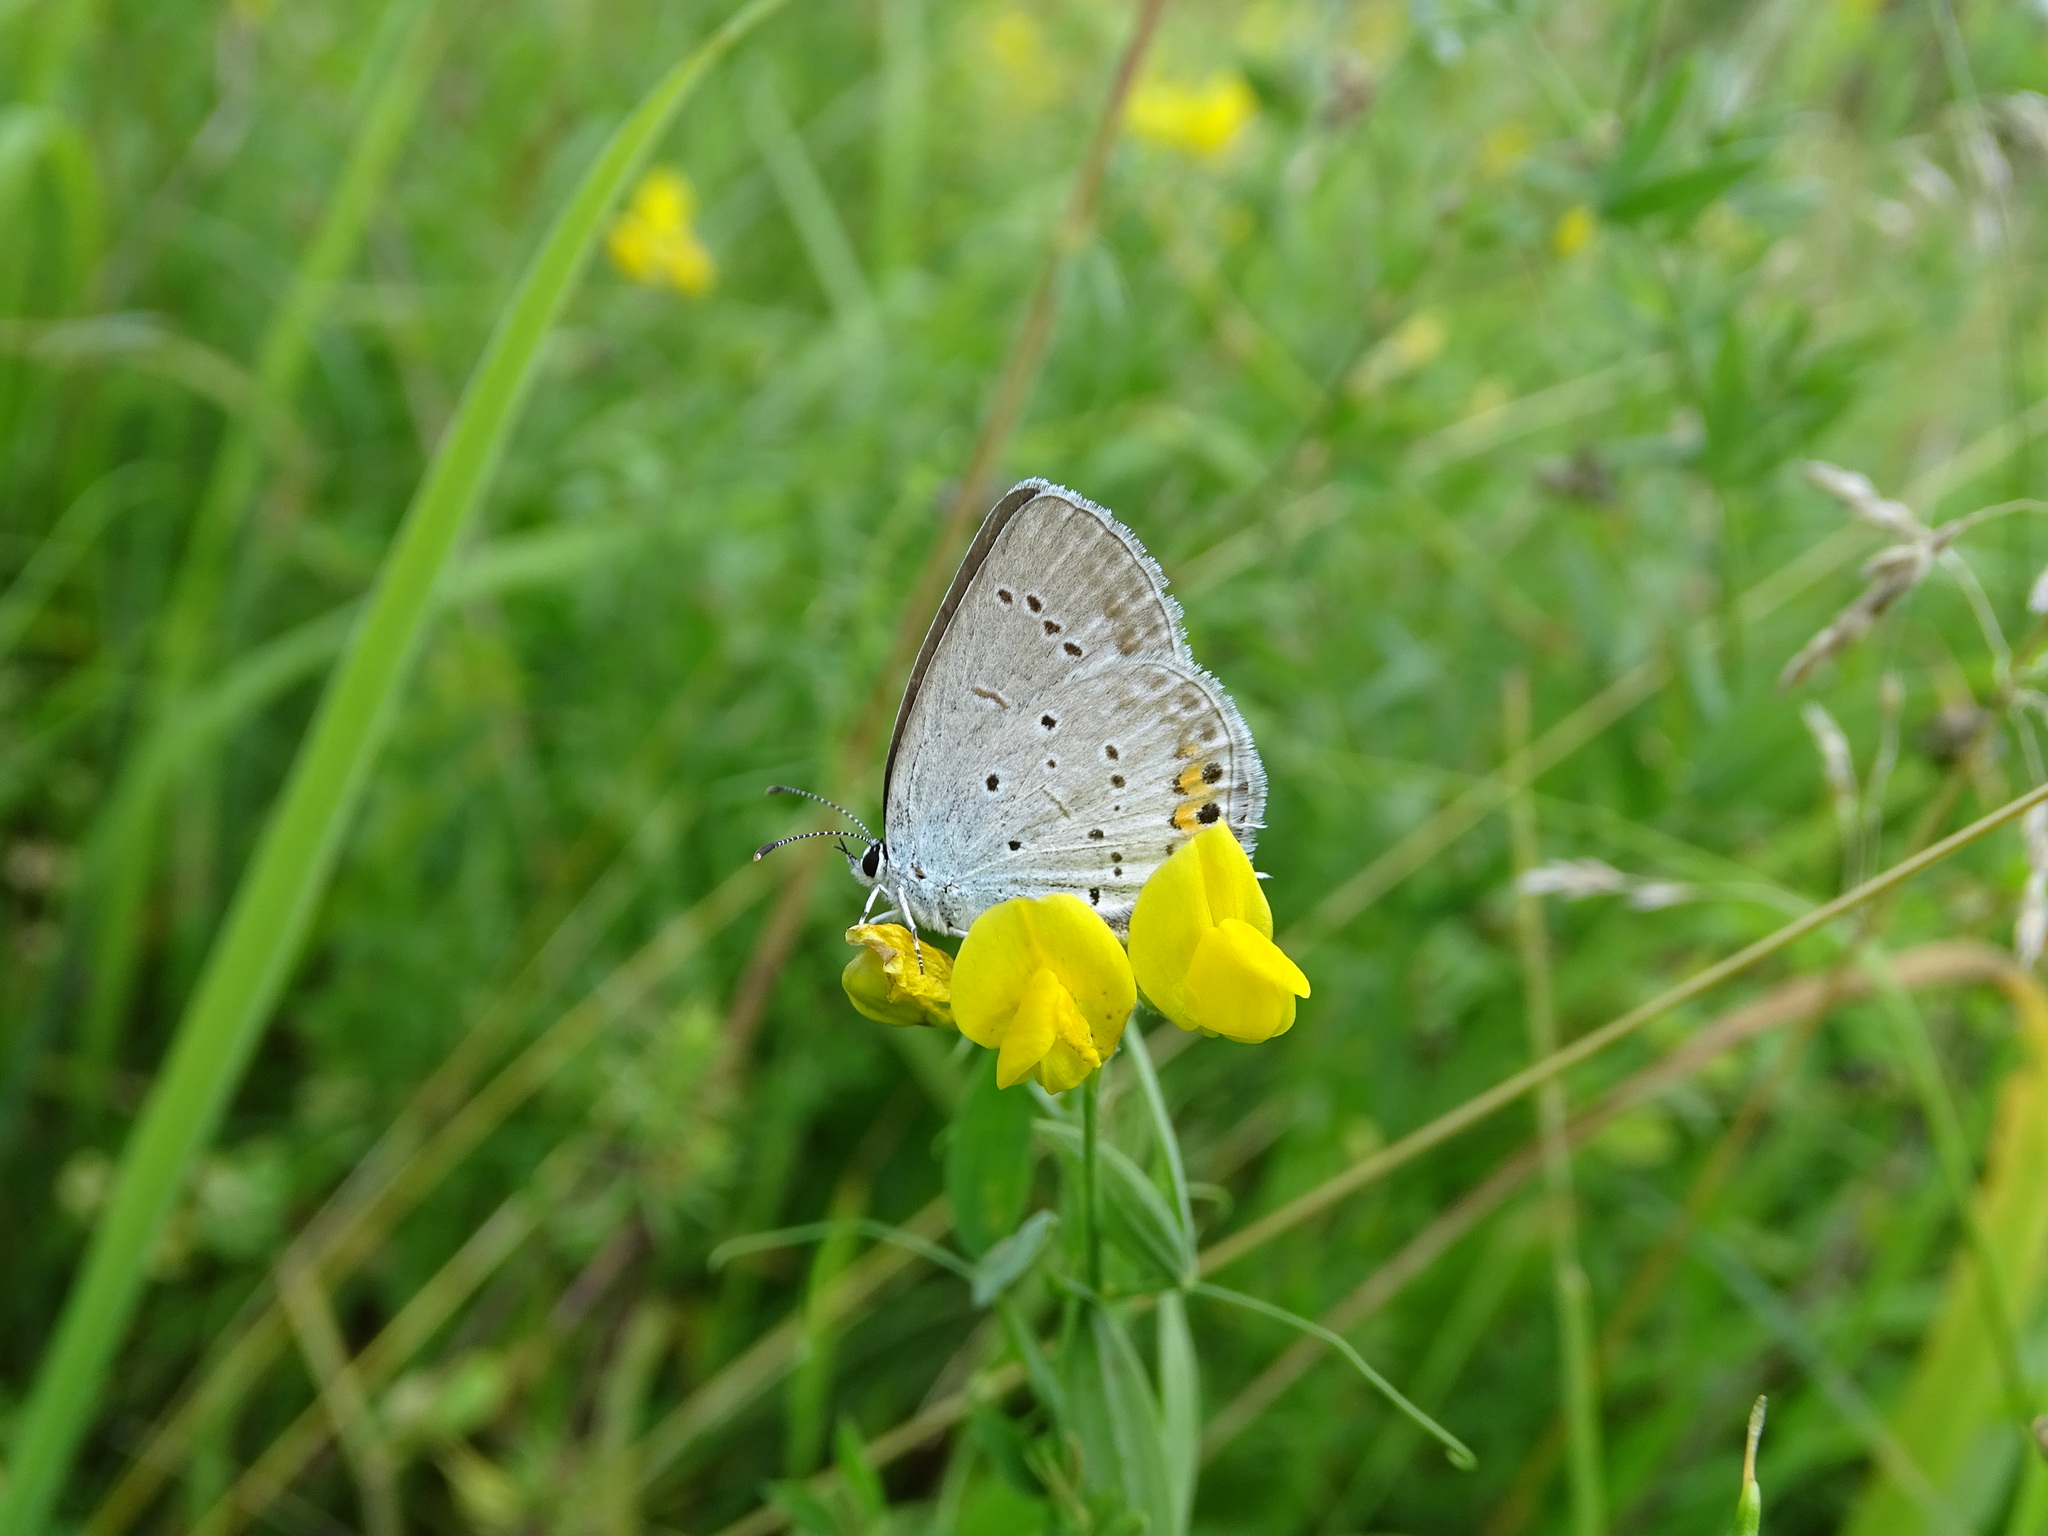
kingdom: Animalia
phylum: Arthropoda
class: Insecta
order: Lepidoptera
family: Lycaenidae
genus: Elkalyce
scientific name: Elkalyce argiades
